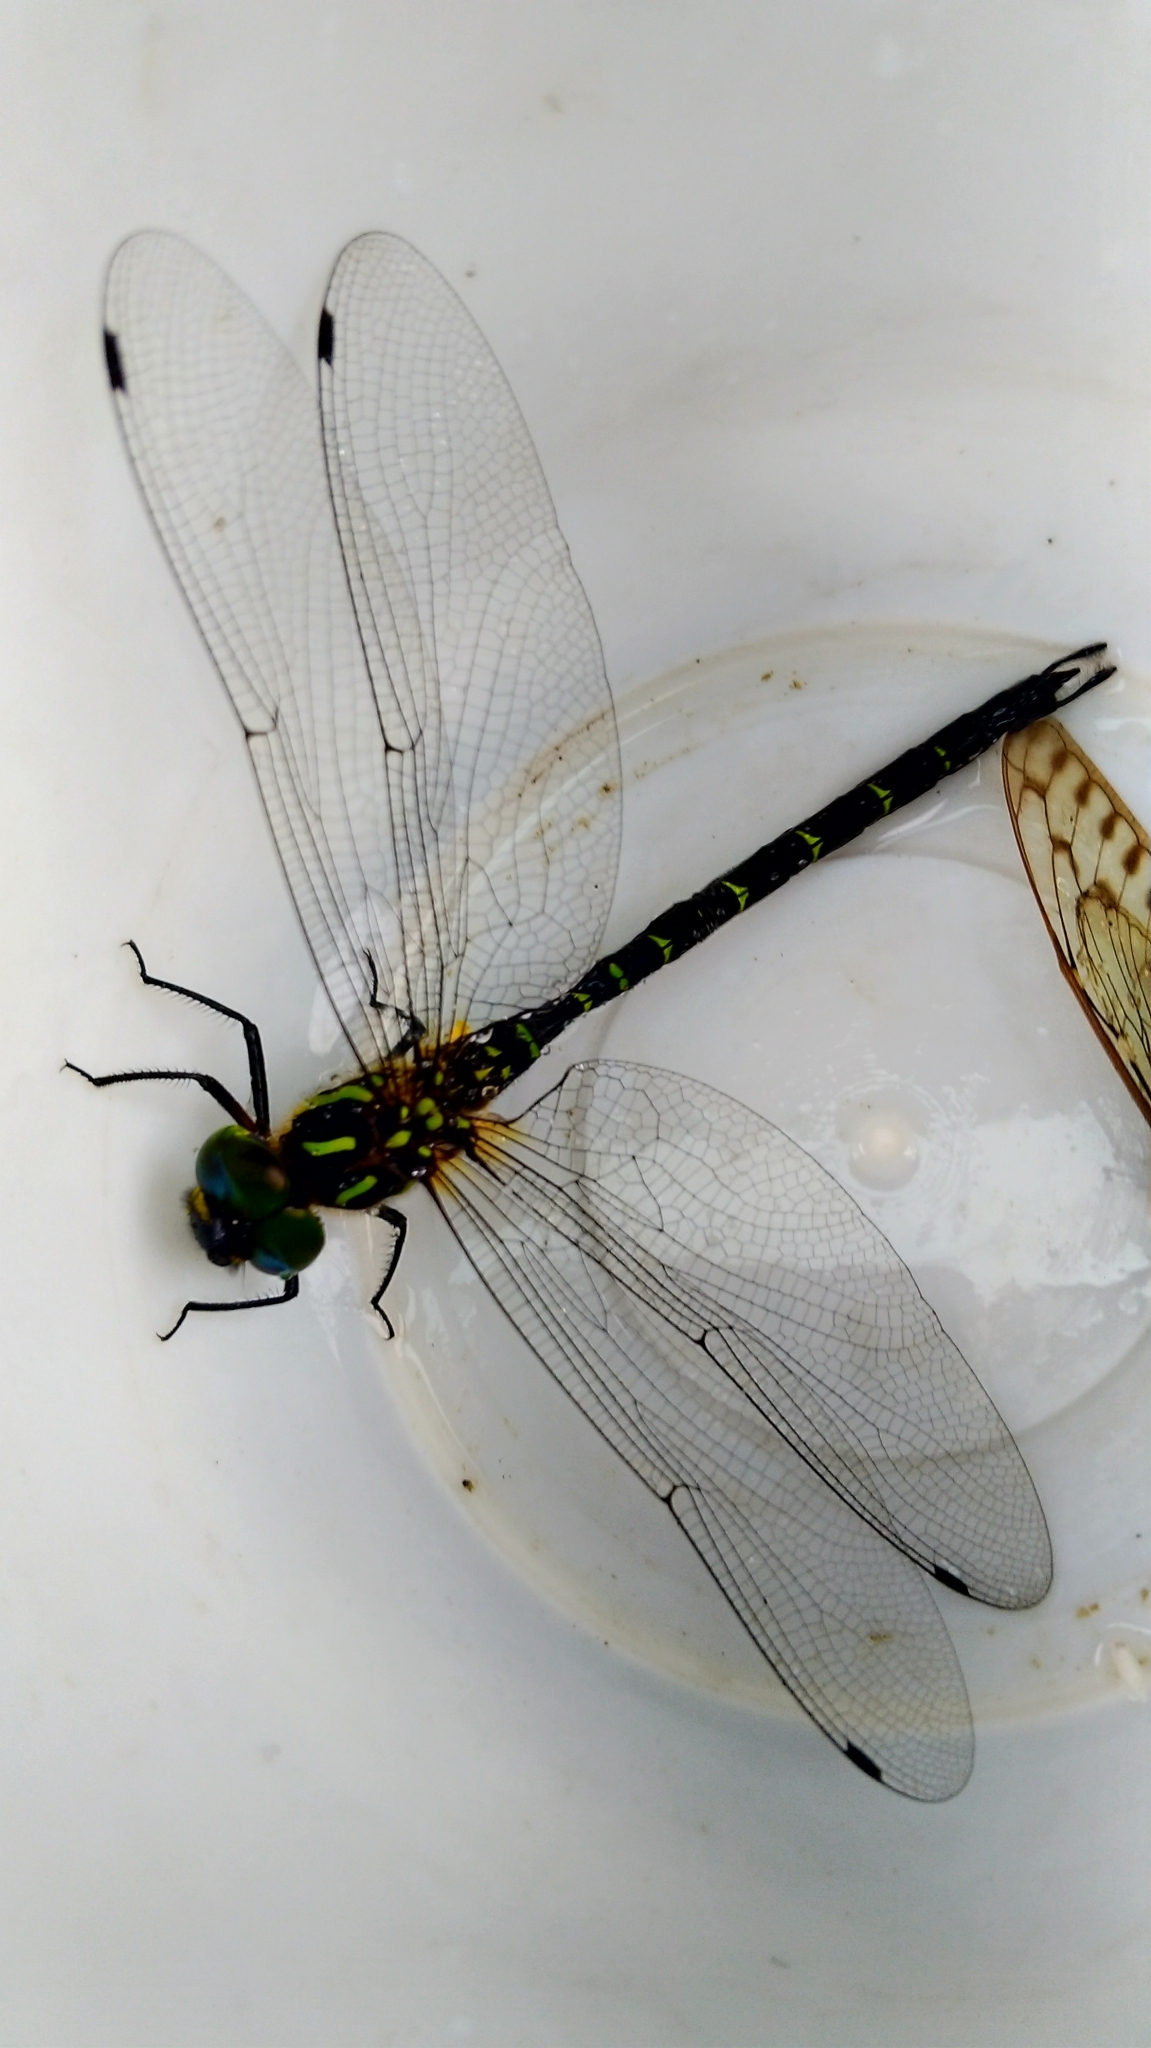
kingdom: Animalia
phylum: Arthropoda
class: Insecta
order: Odonata
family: Aeshnidae
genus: Aeschnophlebia
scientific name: Aeschnophlebia
